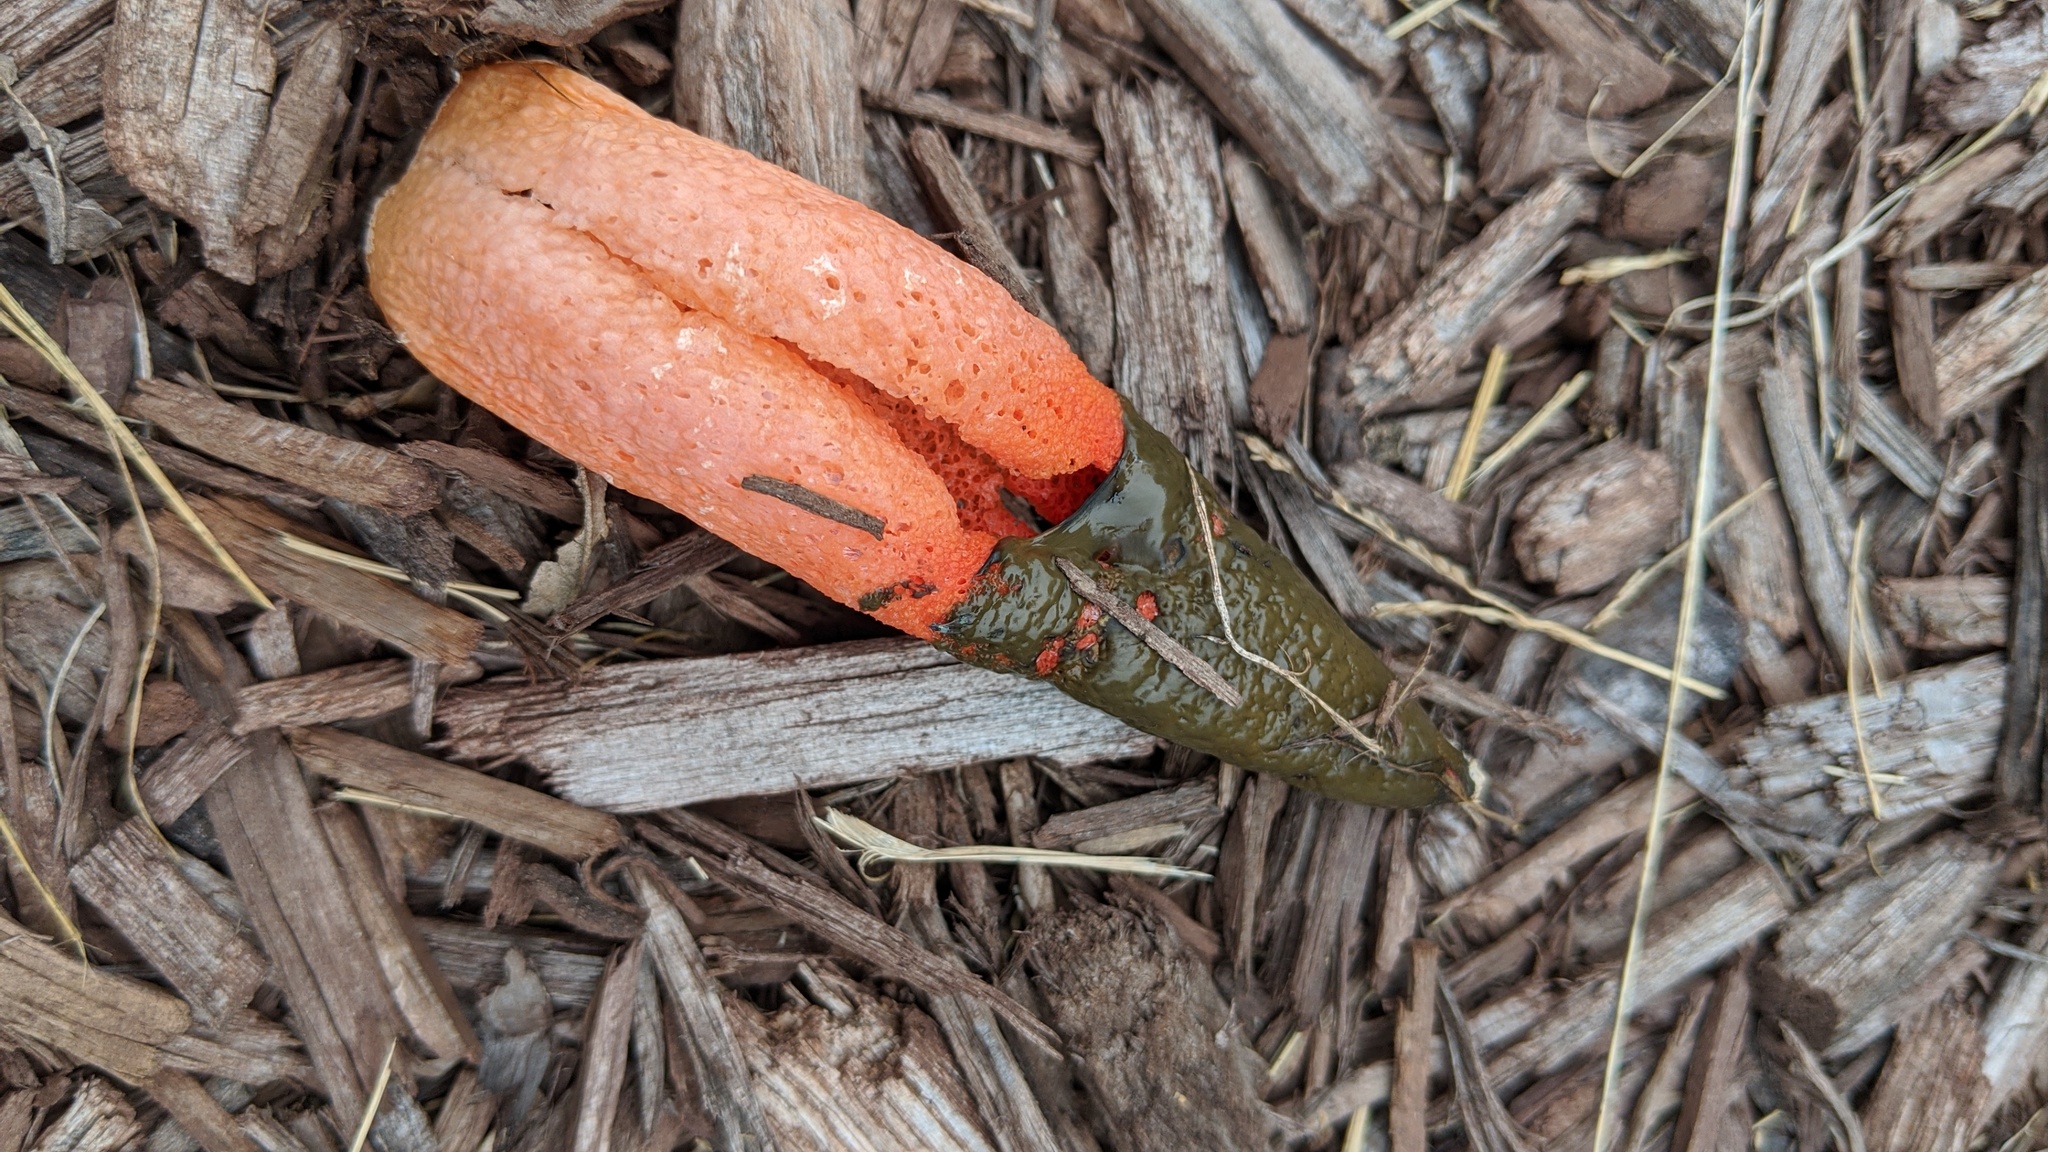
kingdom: Fungi
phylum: Basidiomycota
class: Agaricomycetes
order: Phallales
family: Phallaceae
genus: Mutinus
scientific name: Mutinus elegans
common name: Devil's dipstick
